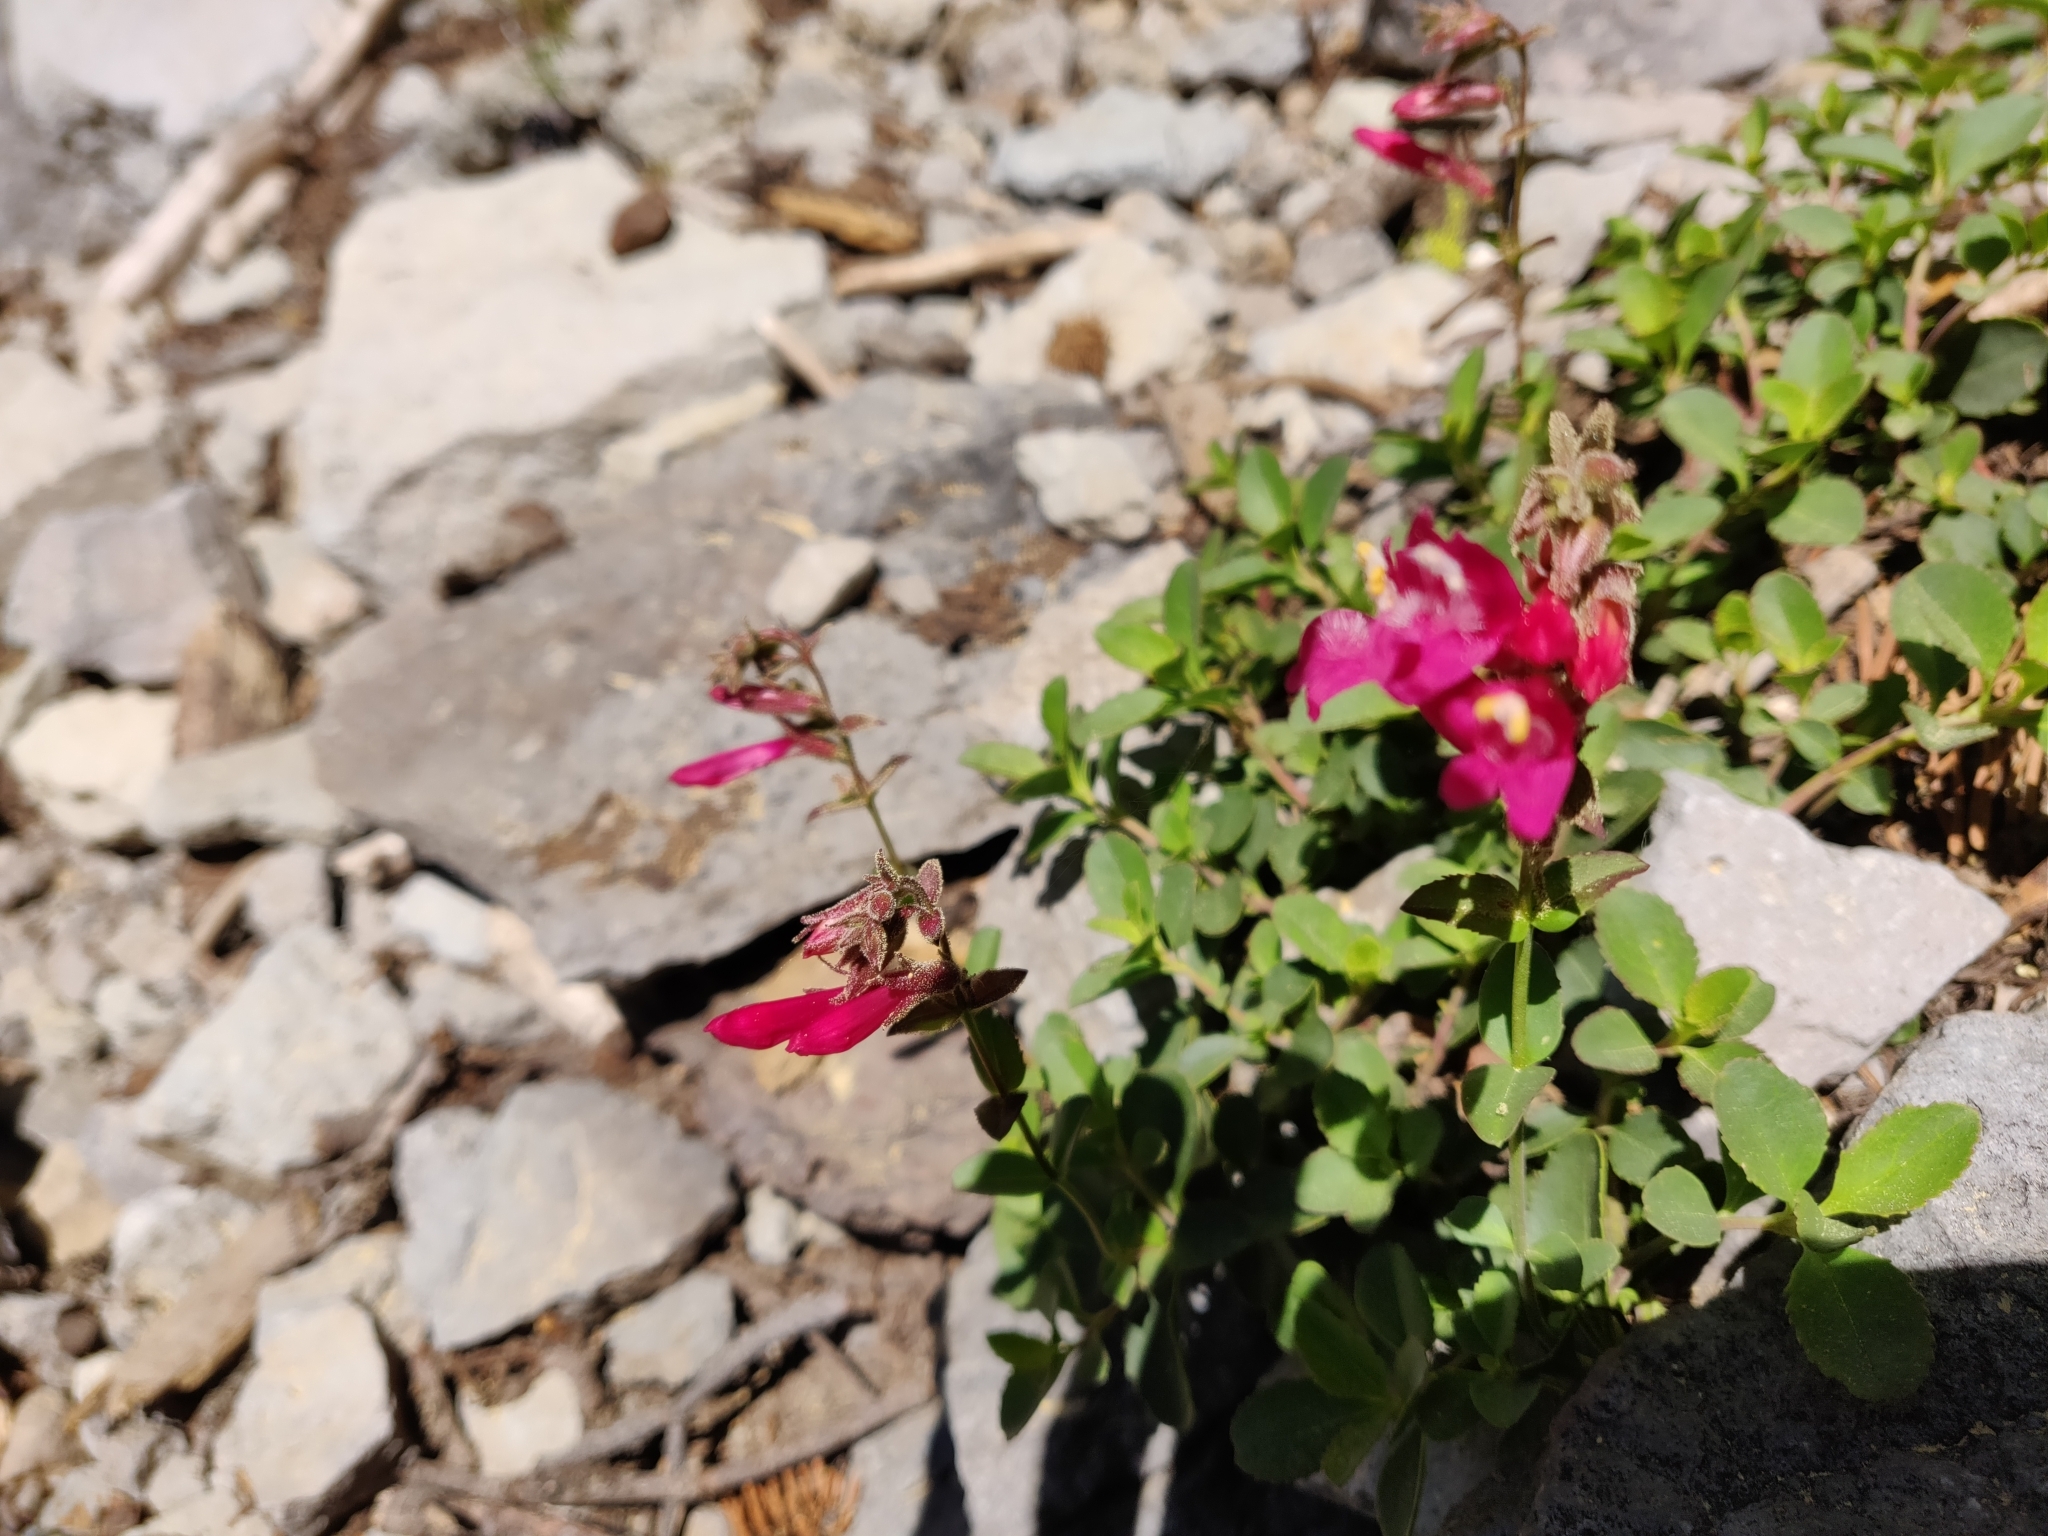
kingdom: Plantae
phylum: Tracheophyta
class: Magnoliopsida
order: Lamiales
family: Plantaginaceae
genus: Penstemon
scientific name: Penstemon newberryi
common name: Mountain-pride
